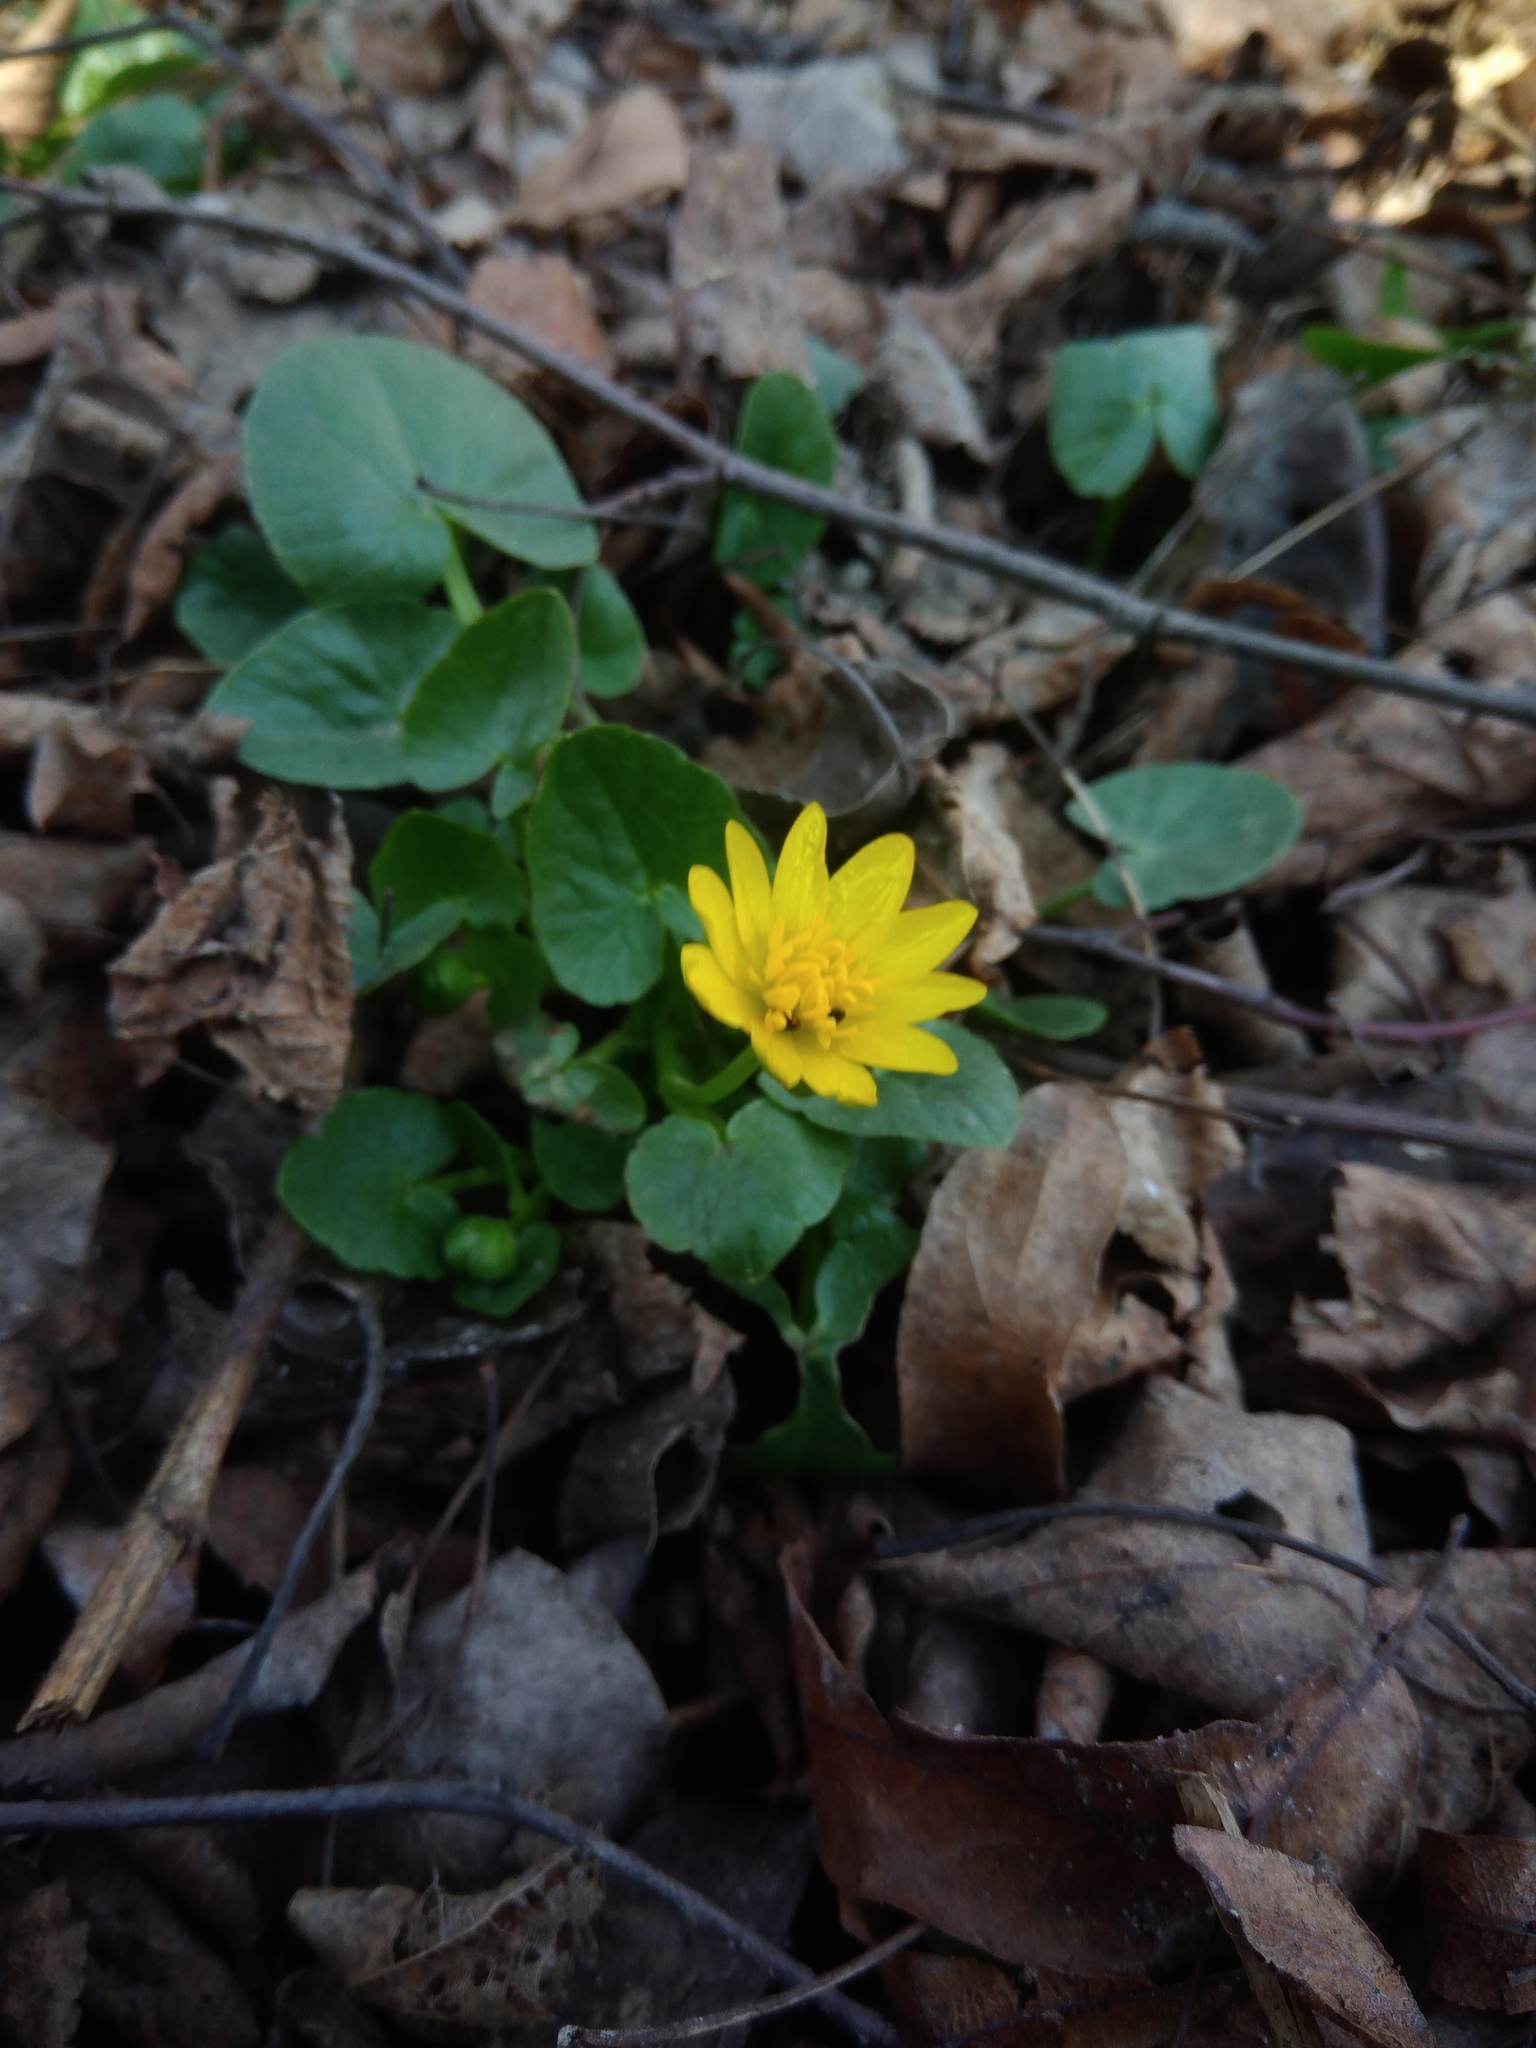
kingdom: Plantae
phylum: Tracheophyta
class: Magnoliopsida
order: Ranunculales
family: Ranunculaceae
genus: Ficaria
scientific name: Ficaria verna
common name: Lesser celandine
